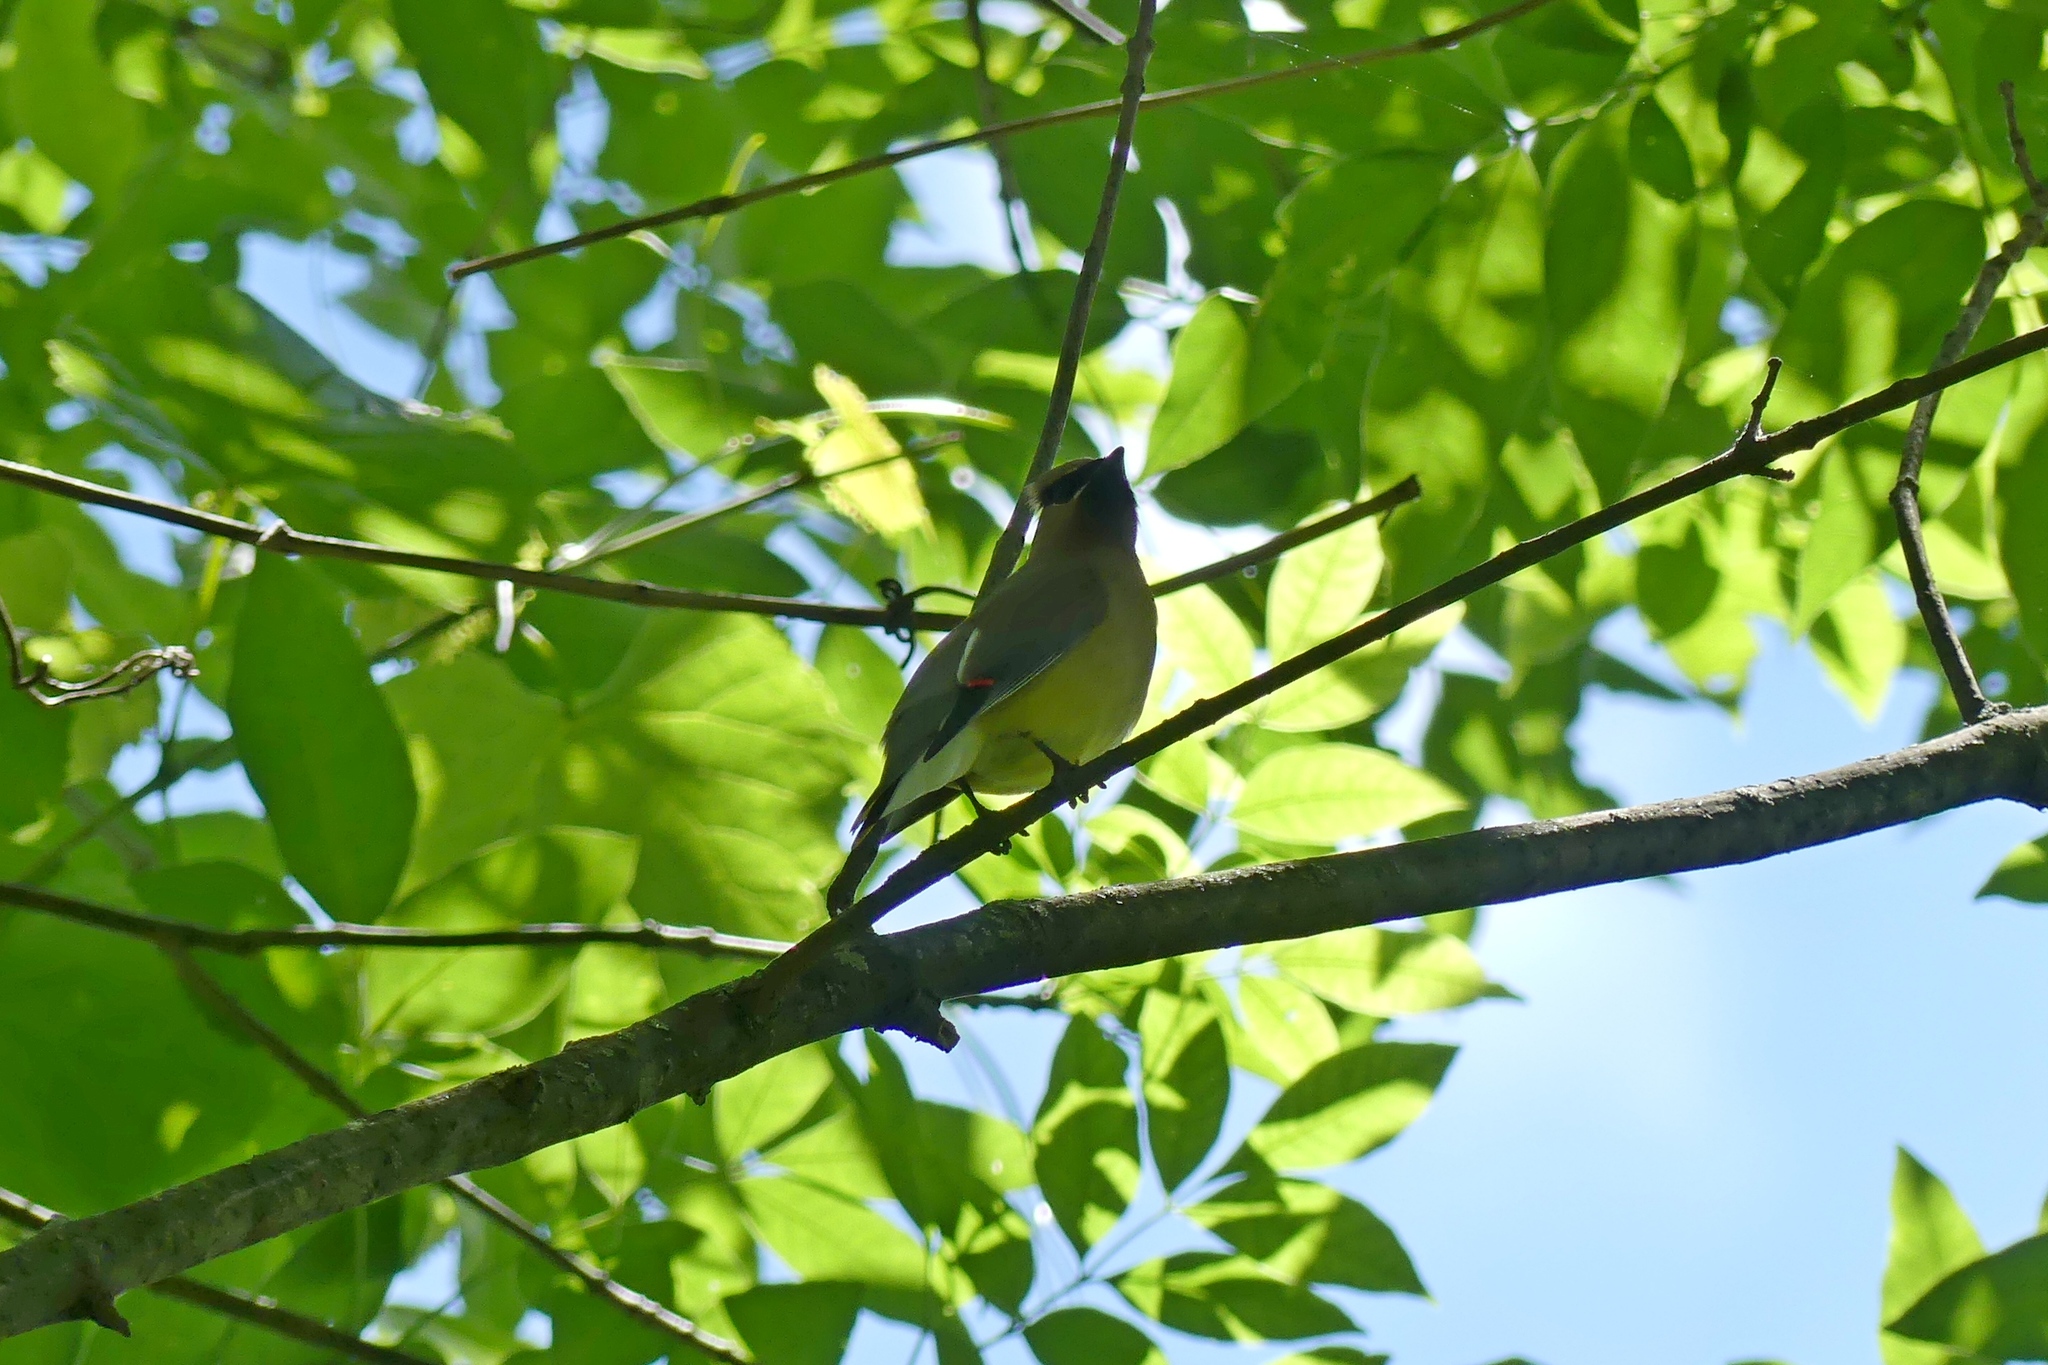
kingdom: Animalia
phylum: Chordata
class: Aves
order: Passeriformes
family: Bombycillidae
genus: Bombycilla
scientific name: Bombycilla cedrorum
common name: Cedar waxwing
